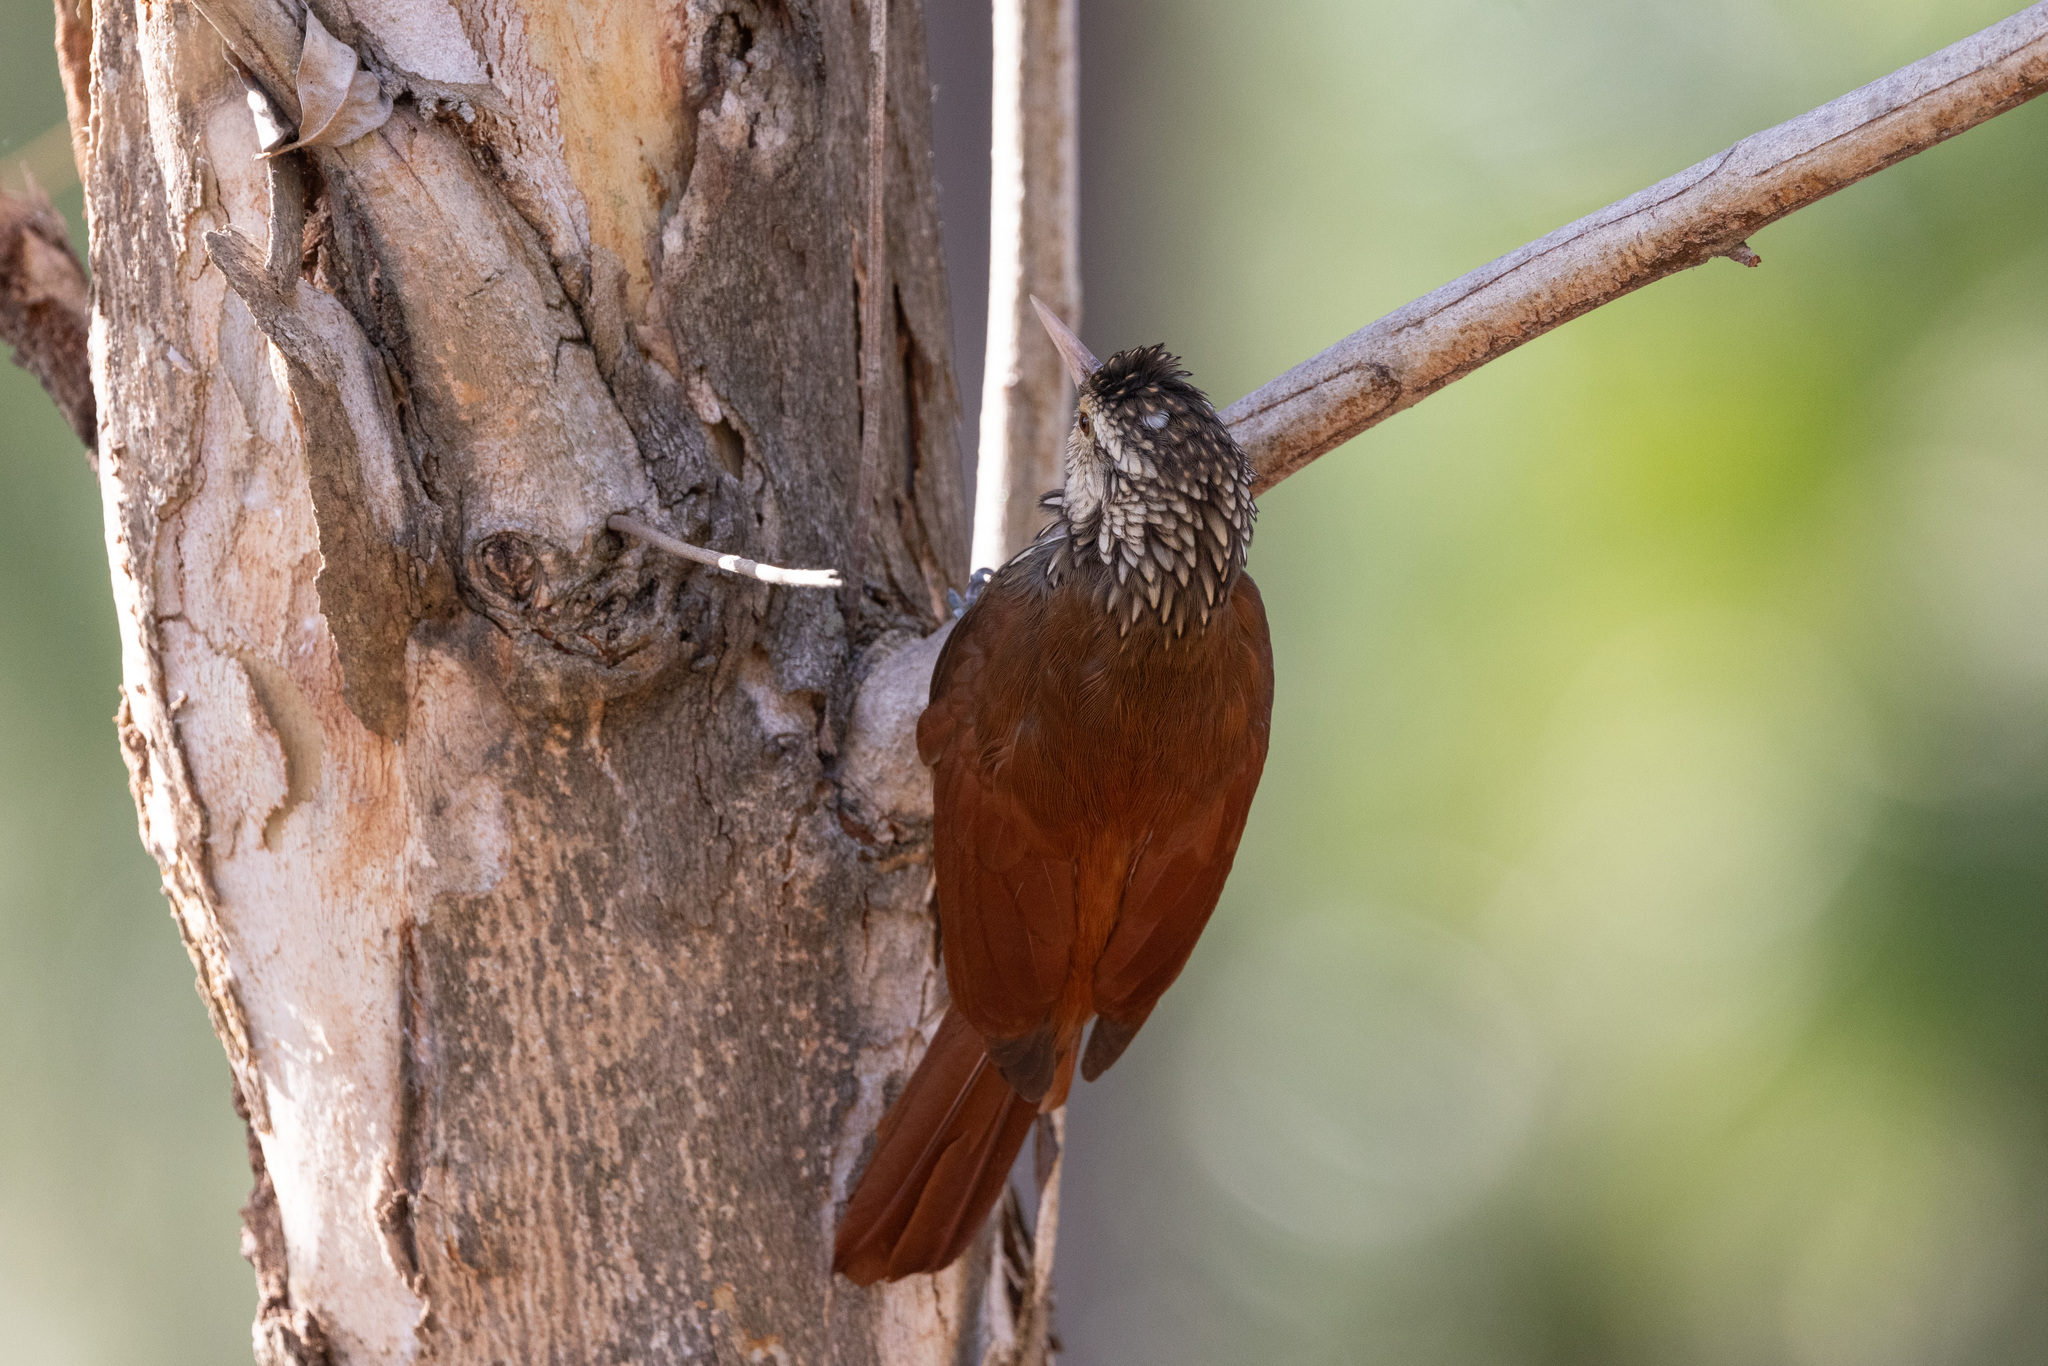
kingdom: Animalia
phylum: Chordata
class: Aves
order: Passeriformes
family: Furnariidae
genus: Xiphorhynchus
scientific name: Xiphorhynchus picus
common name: Straight-billed woodcreeper
